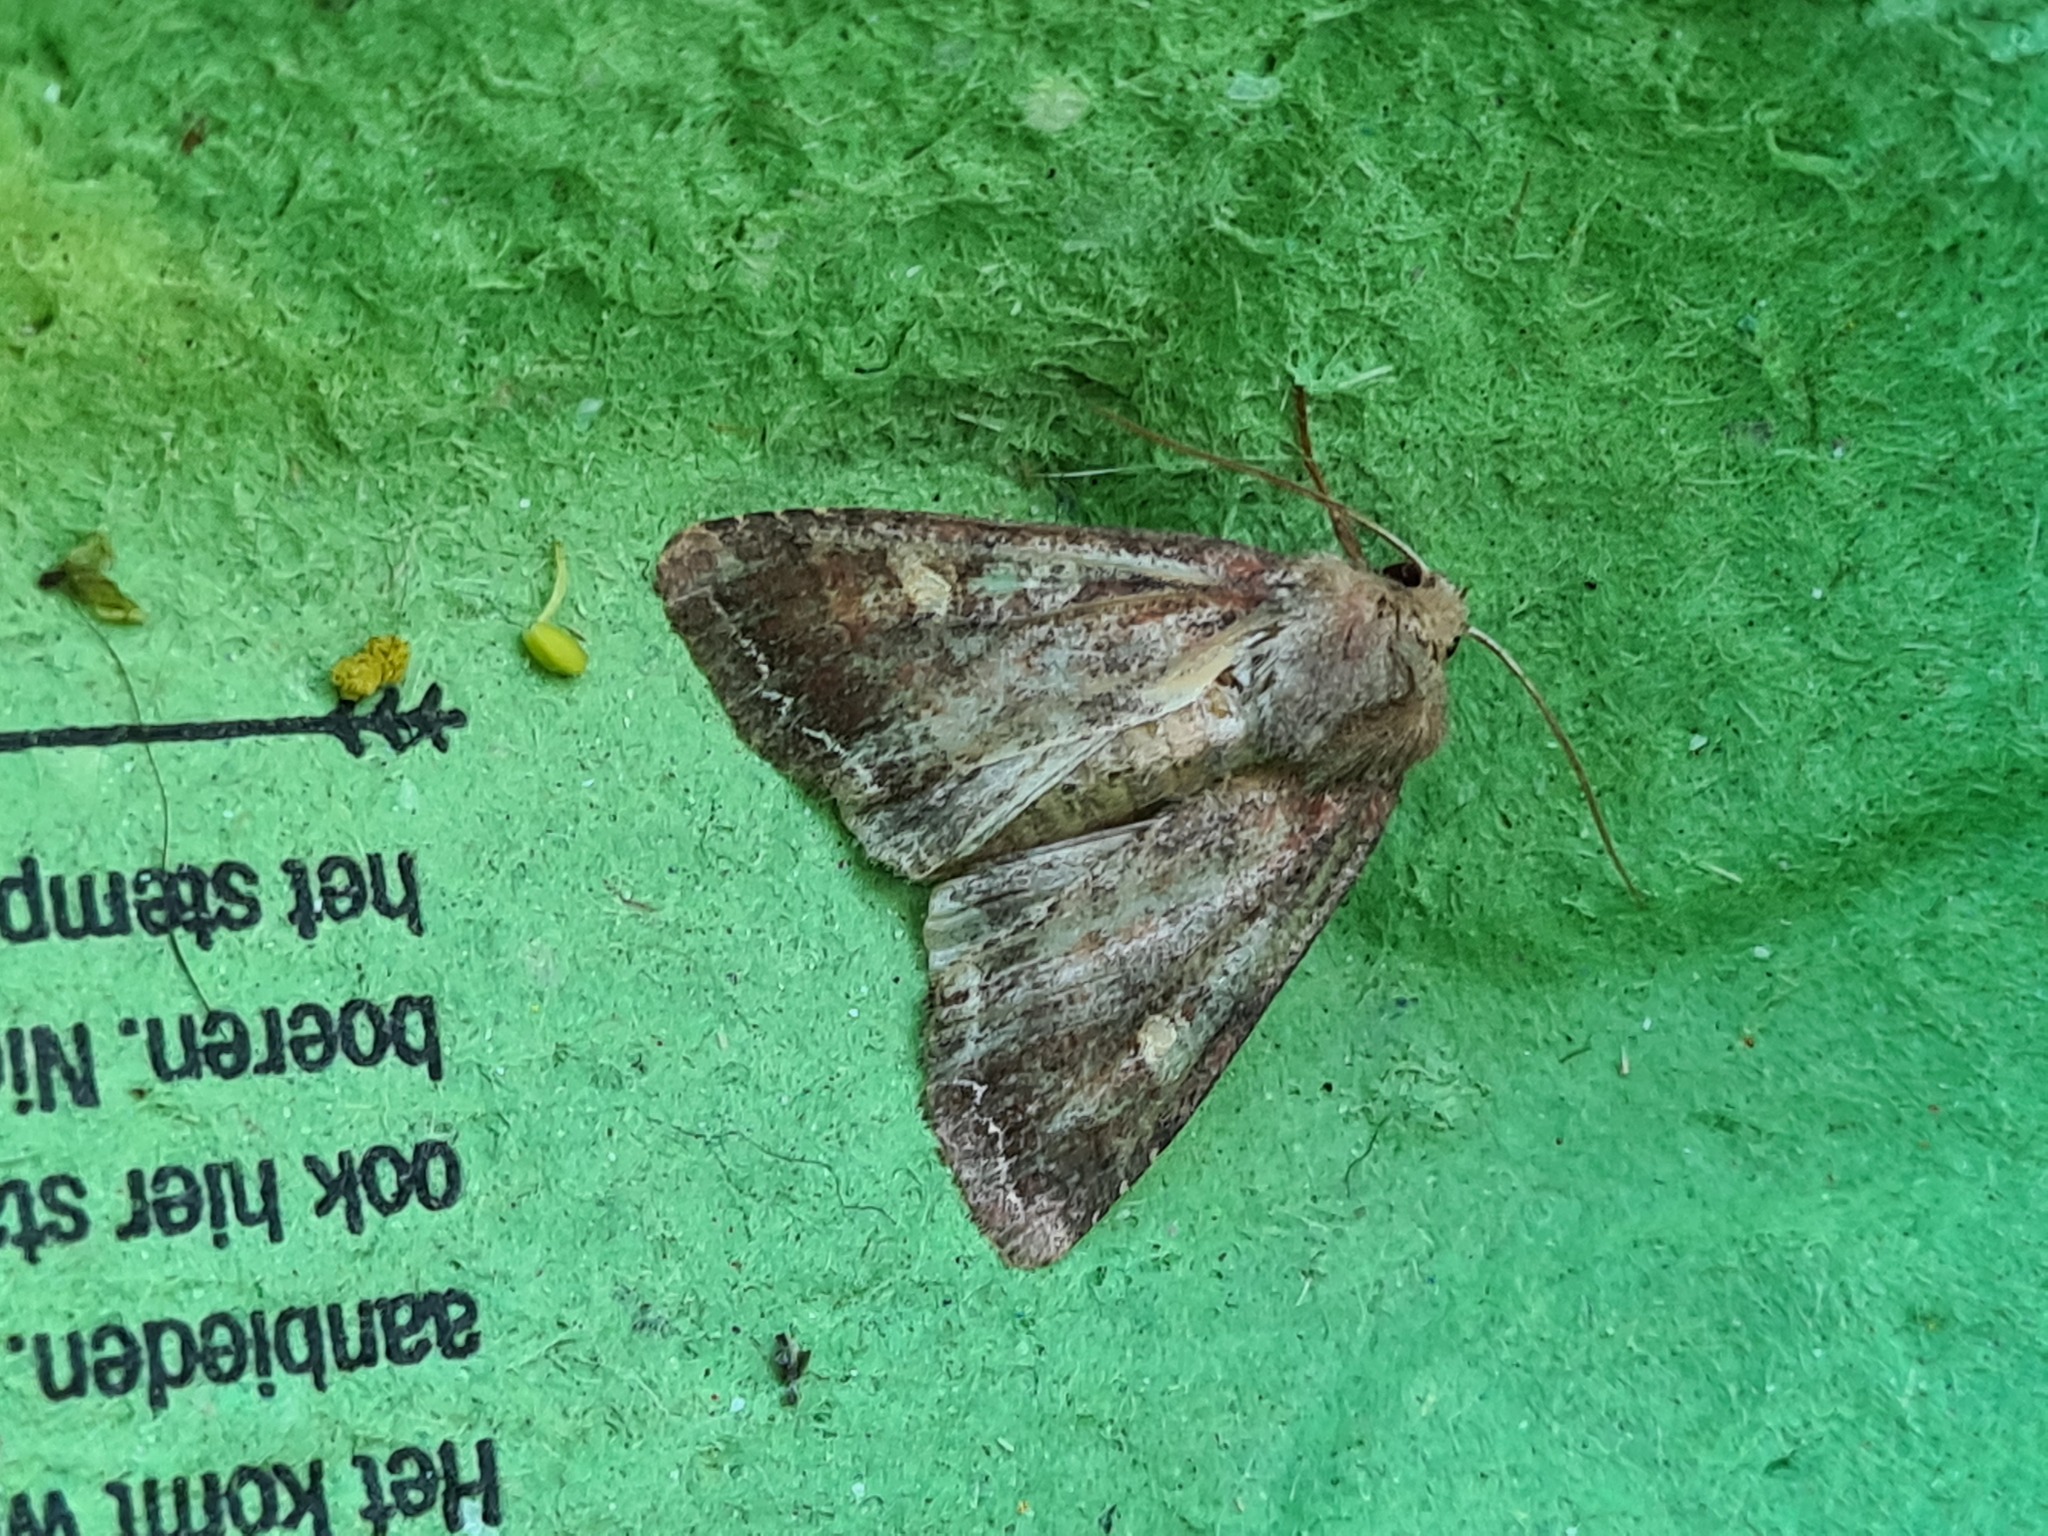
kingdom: Animalia
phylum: Arthropoda
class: Insecta
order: Lepidoptera
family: Noctuidae
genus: Lacanobia
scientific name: Lacanobia oleracea
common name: Bright-line brown-eye
